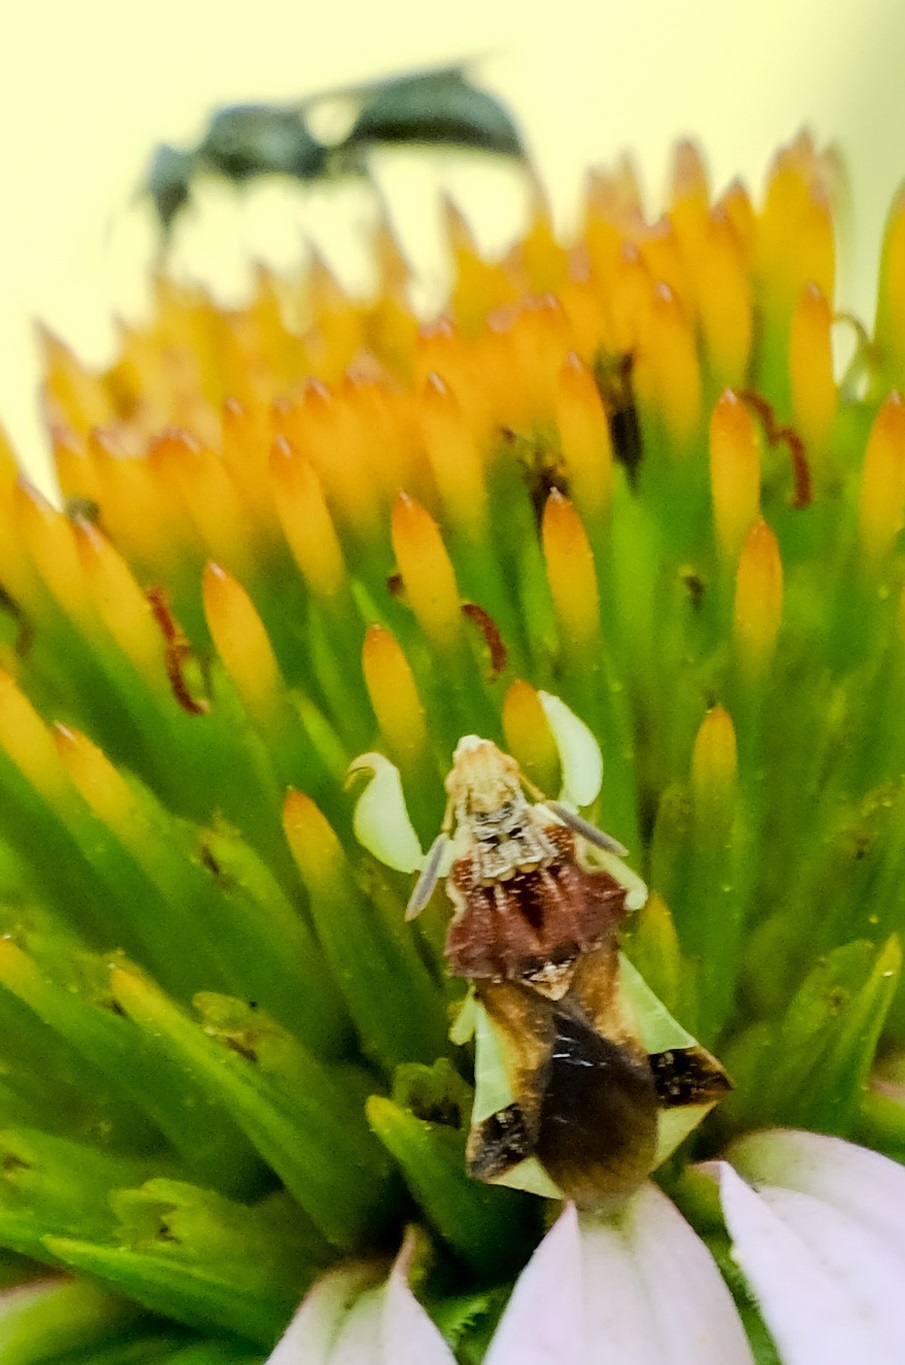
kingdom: Animalia
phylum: Arthropoda
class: Insecta
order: Hemiptera
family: Reduviidae
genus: Phymata
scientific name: Phymata pennsylvanica
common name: Pennsylvania ambush bug
